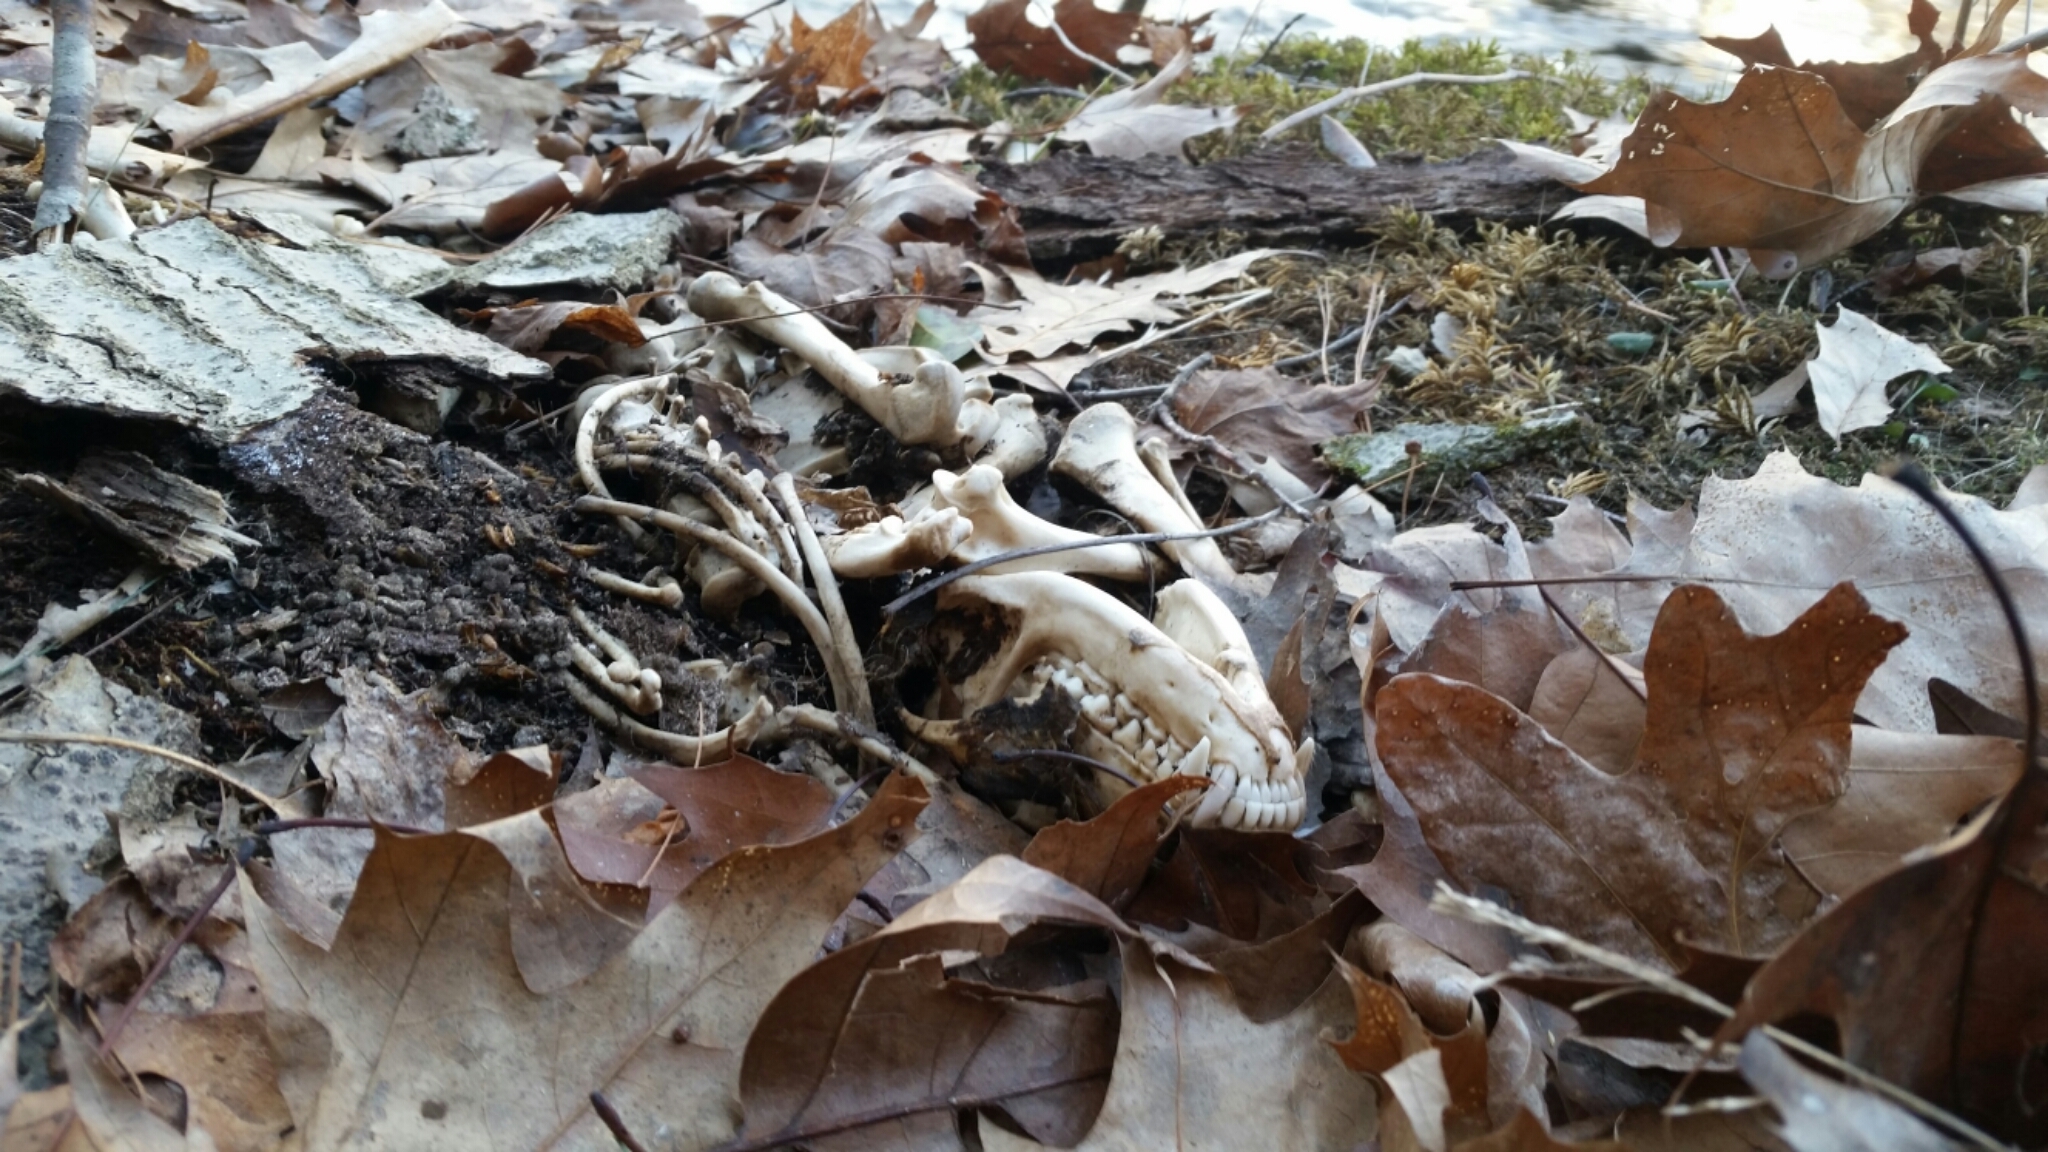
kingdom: Animalia
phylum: Chordata
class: Mammalia
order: Carnivora
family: Procyonidae
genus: Procyon
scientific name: Procyon lotor
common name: Raccoon
